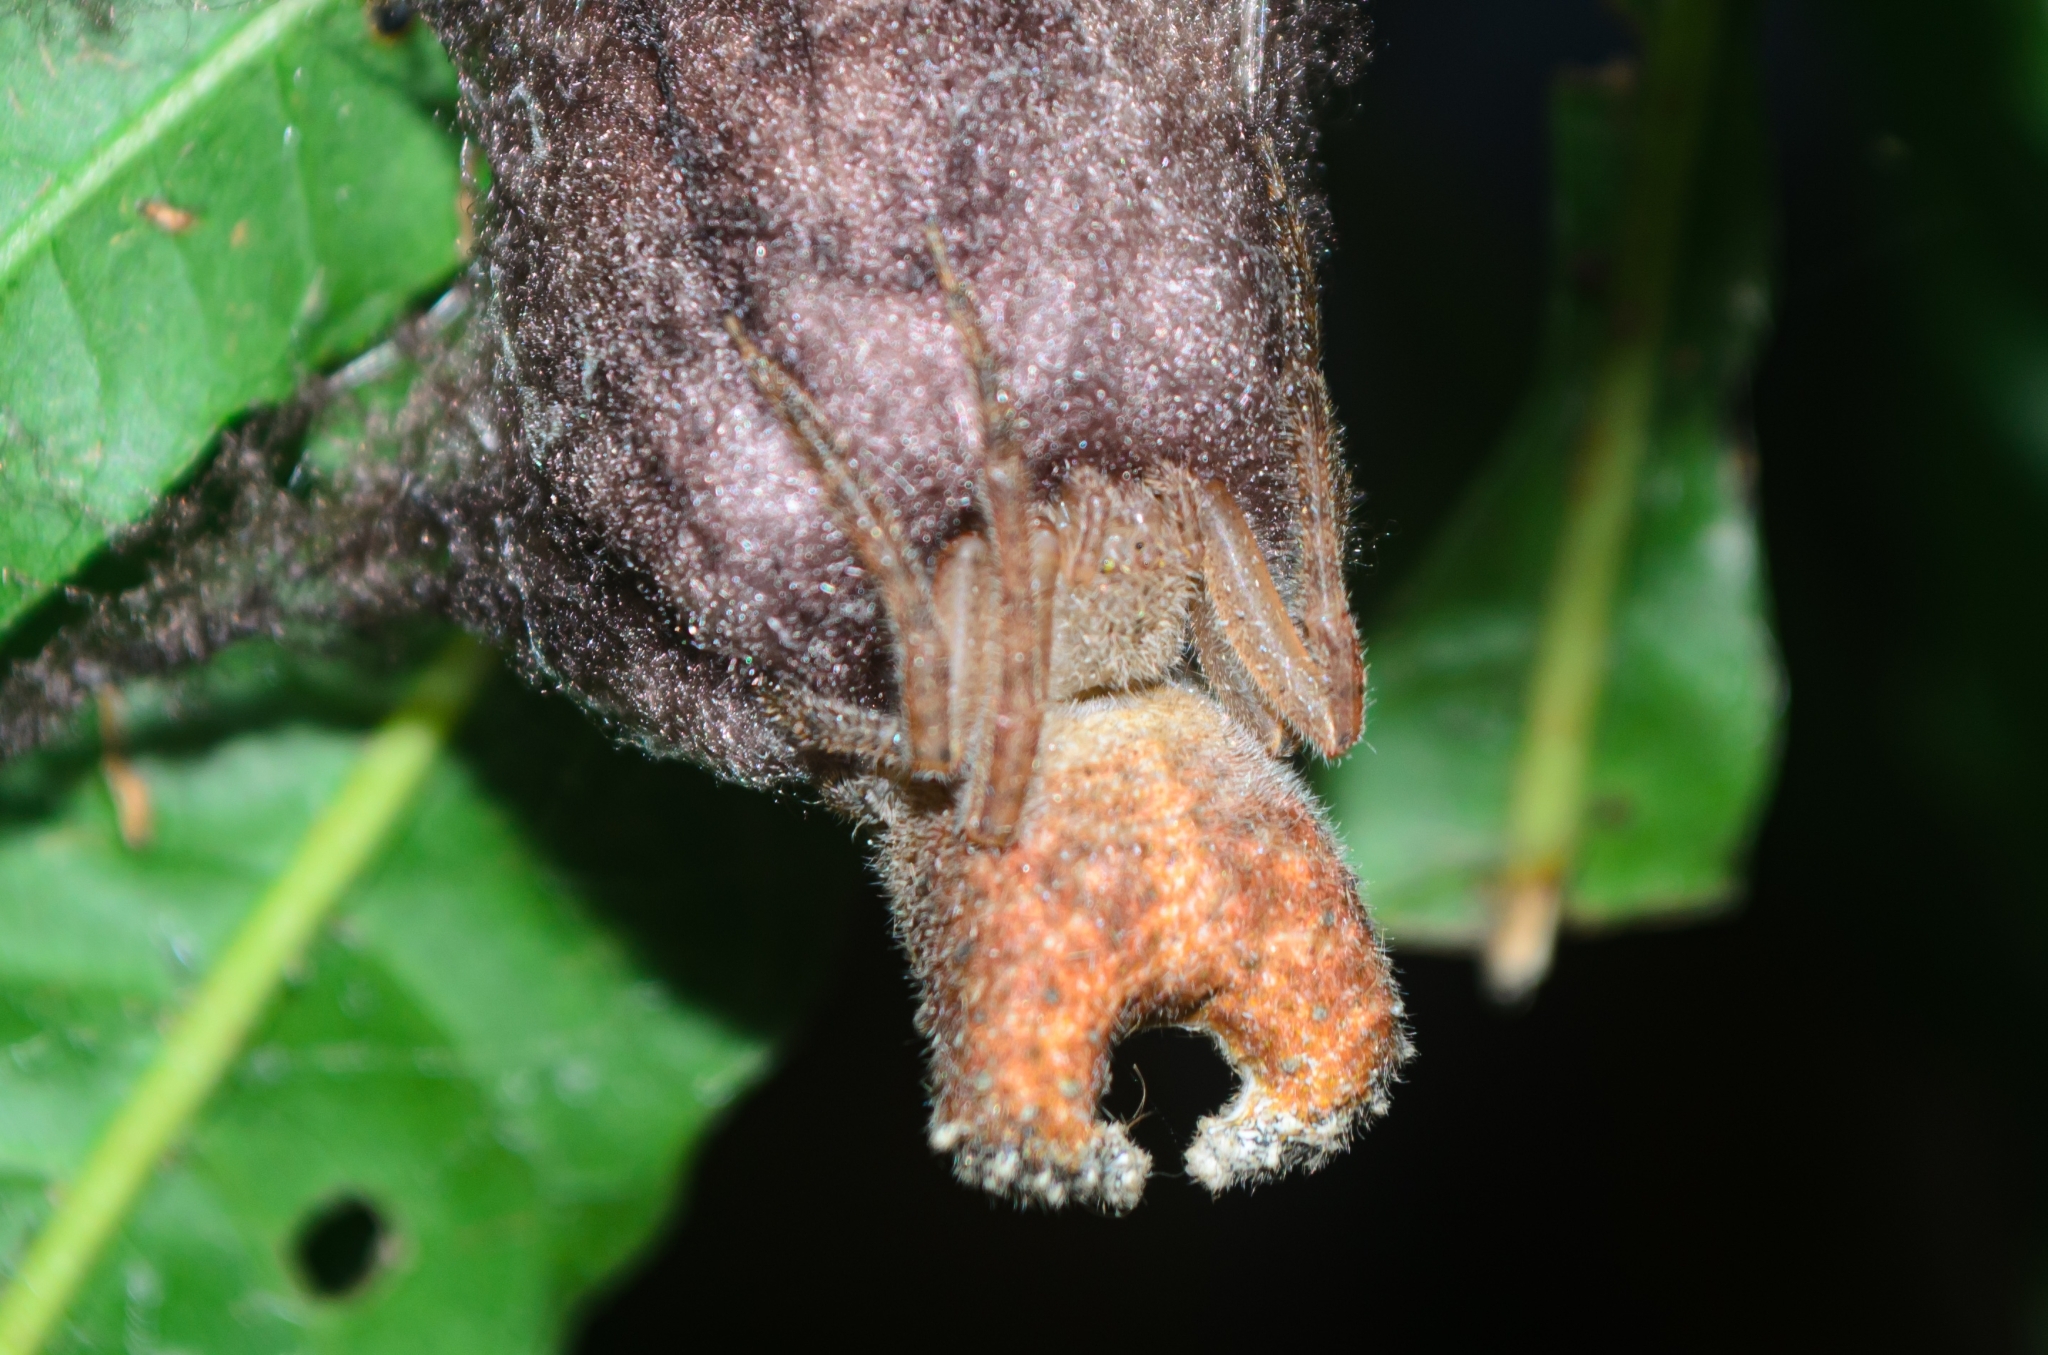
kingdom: Animalia
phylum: Arthropoda
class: Arachnida
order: Araneae
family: Araneidae
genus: Kaira
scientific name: Kaira altiventer
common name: Orb weavers
